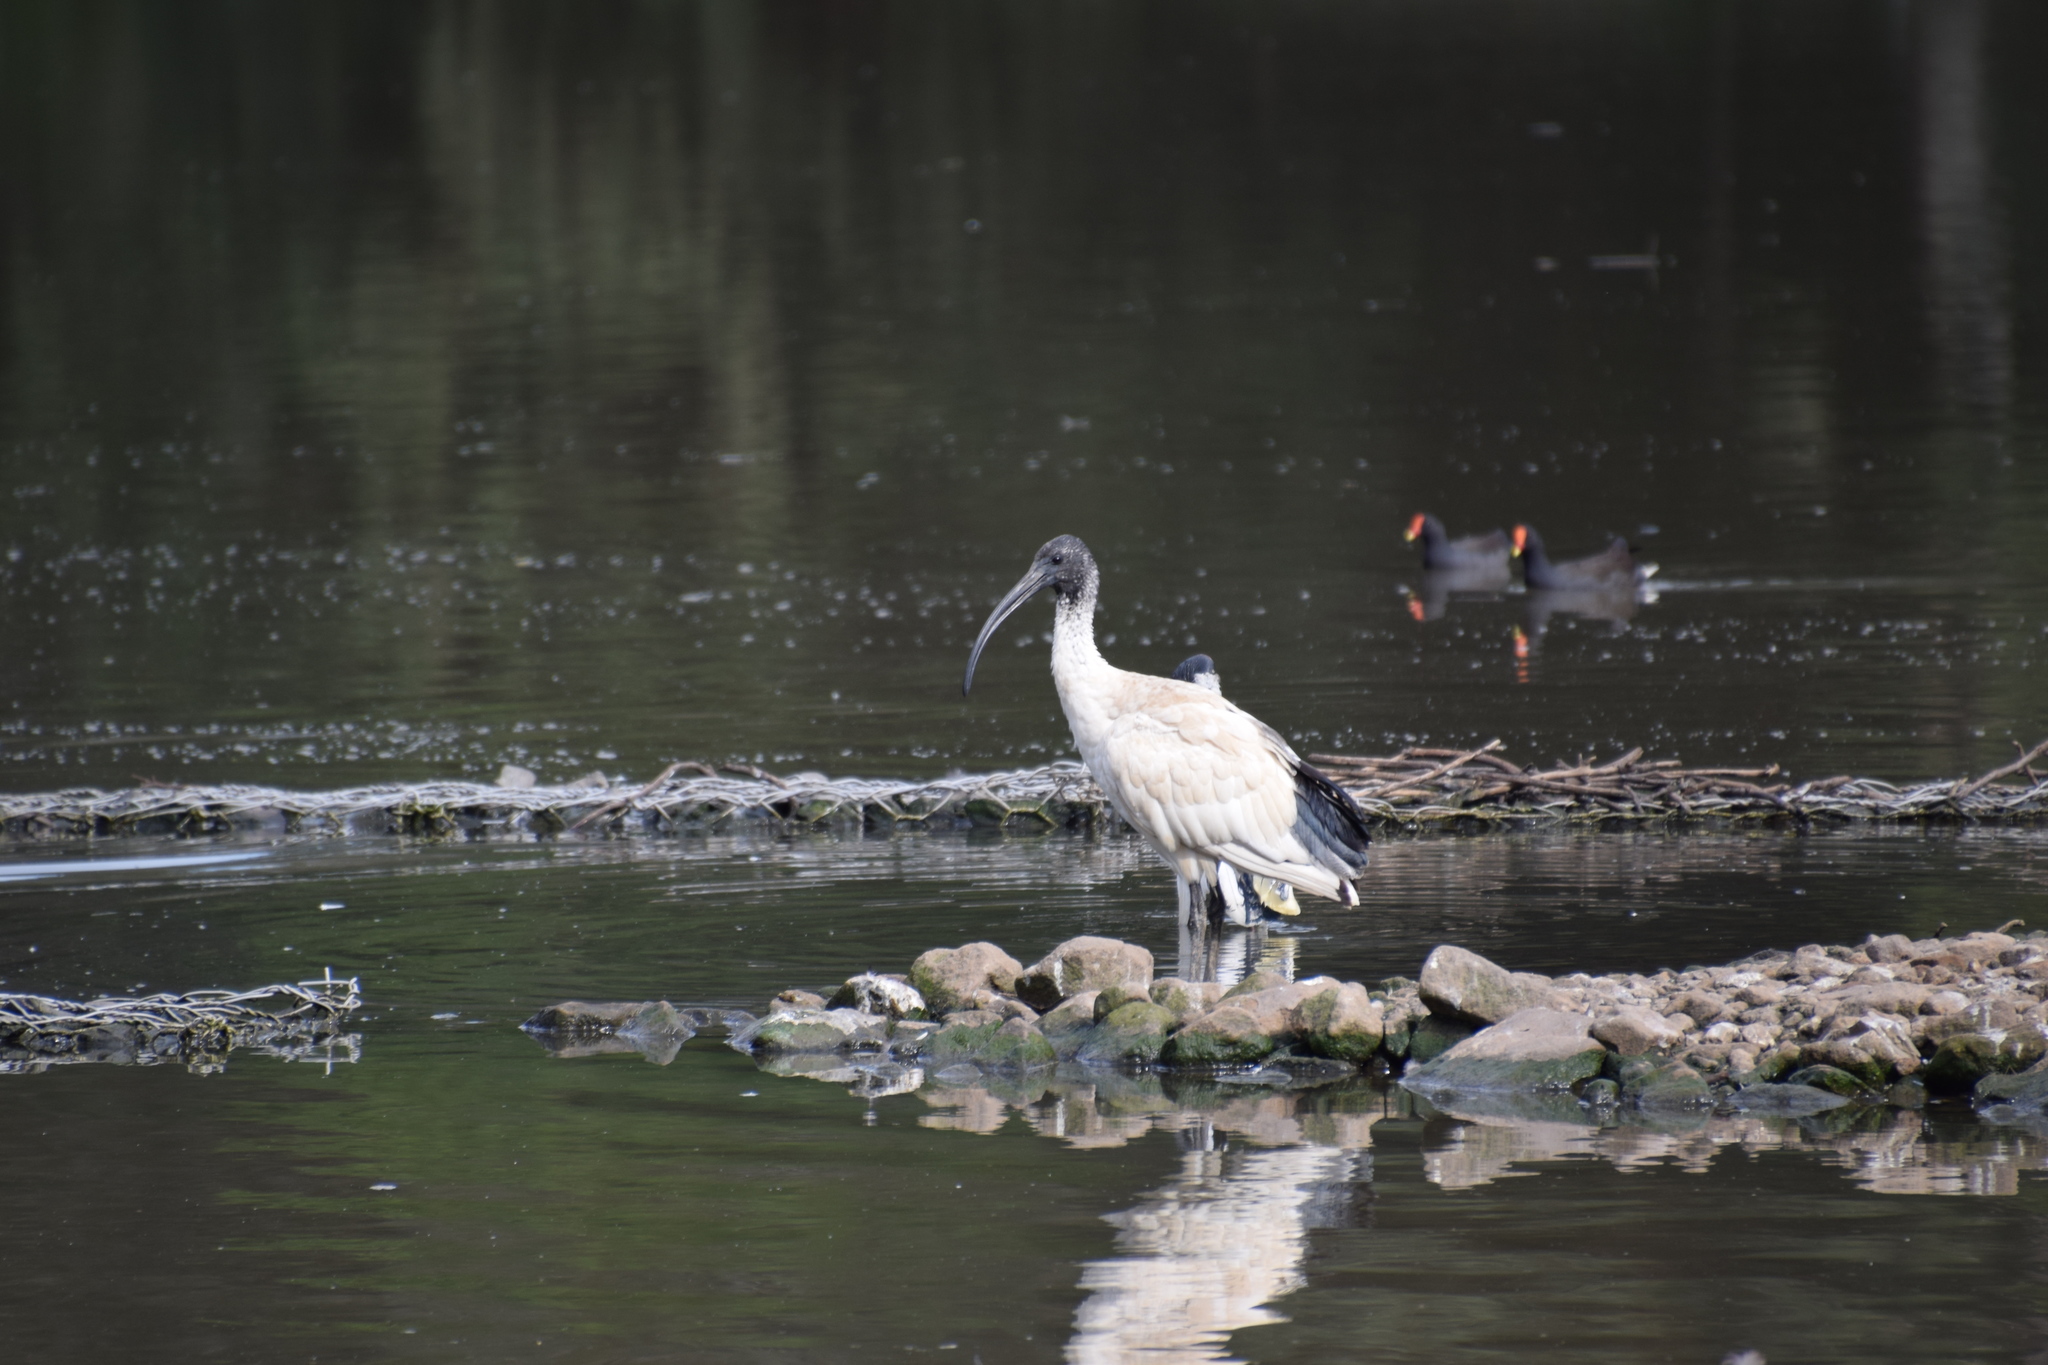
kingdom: Animalia
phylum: Chordata
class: Aves
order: Pelecaniformes
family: Threskiornithidae
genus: Threskiornis
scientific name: Threskiornis molucca
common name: Australian white ibis
